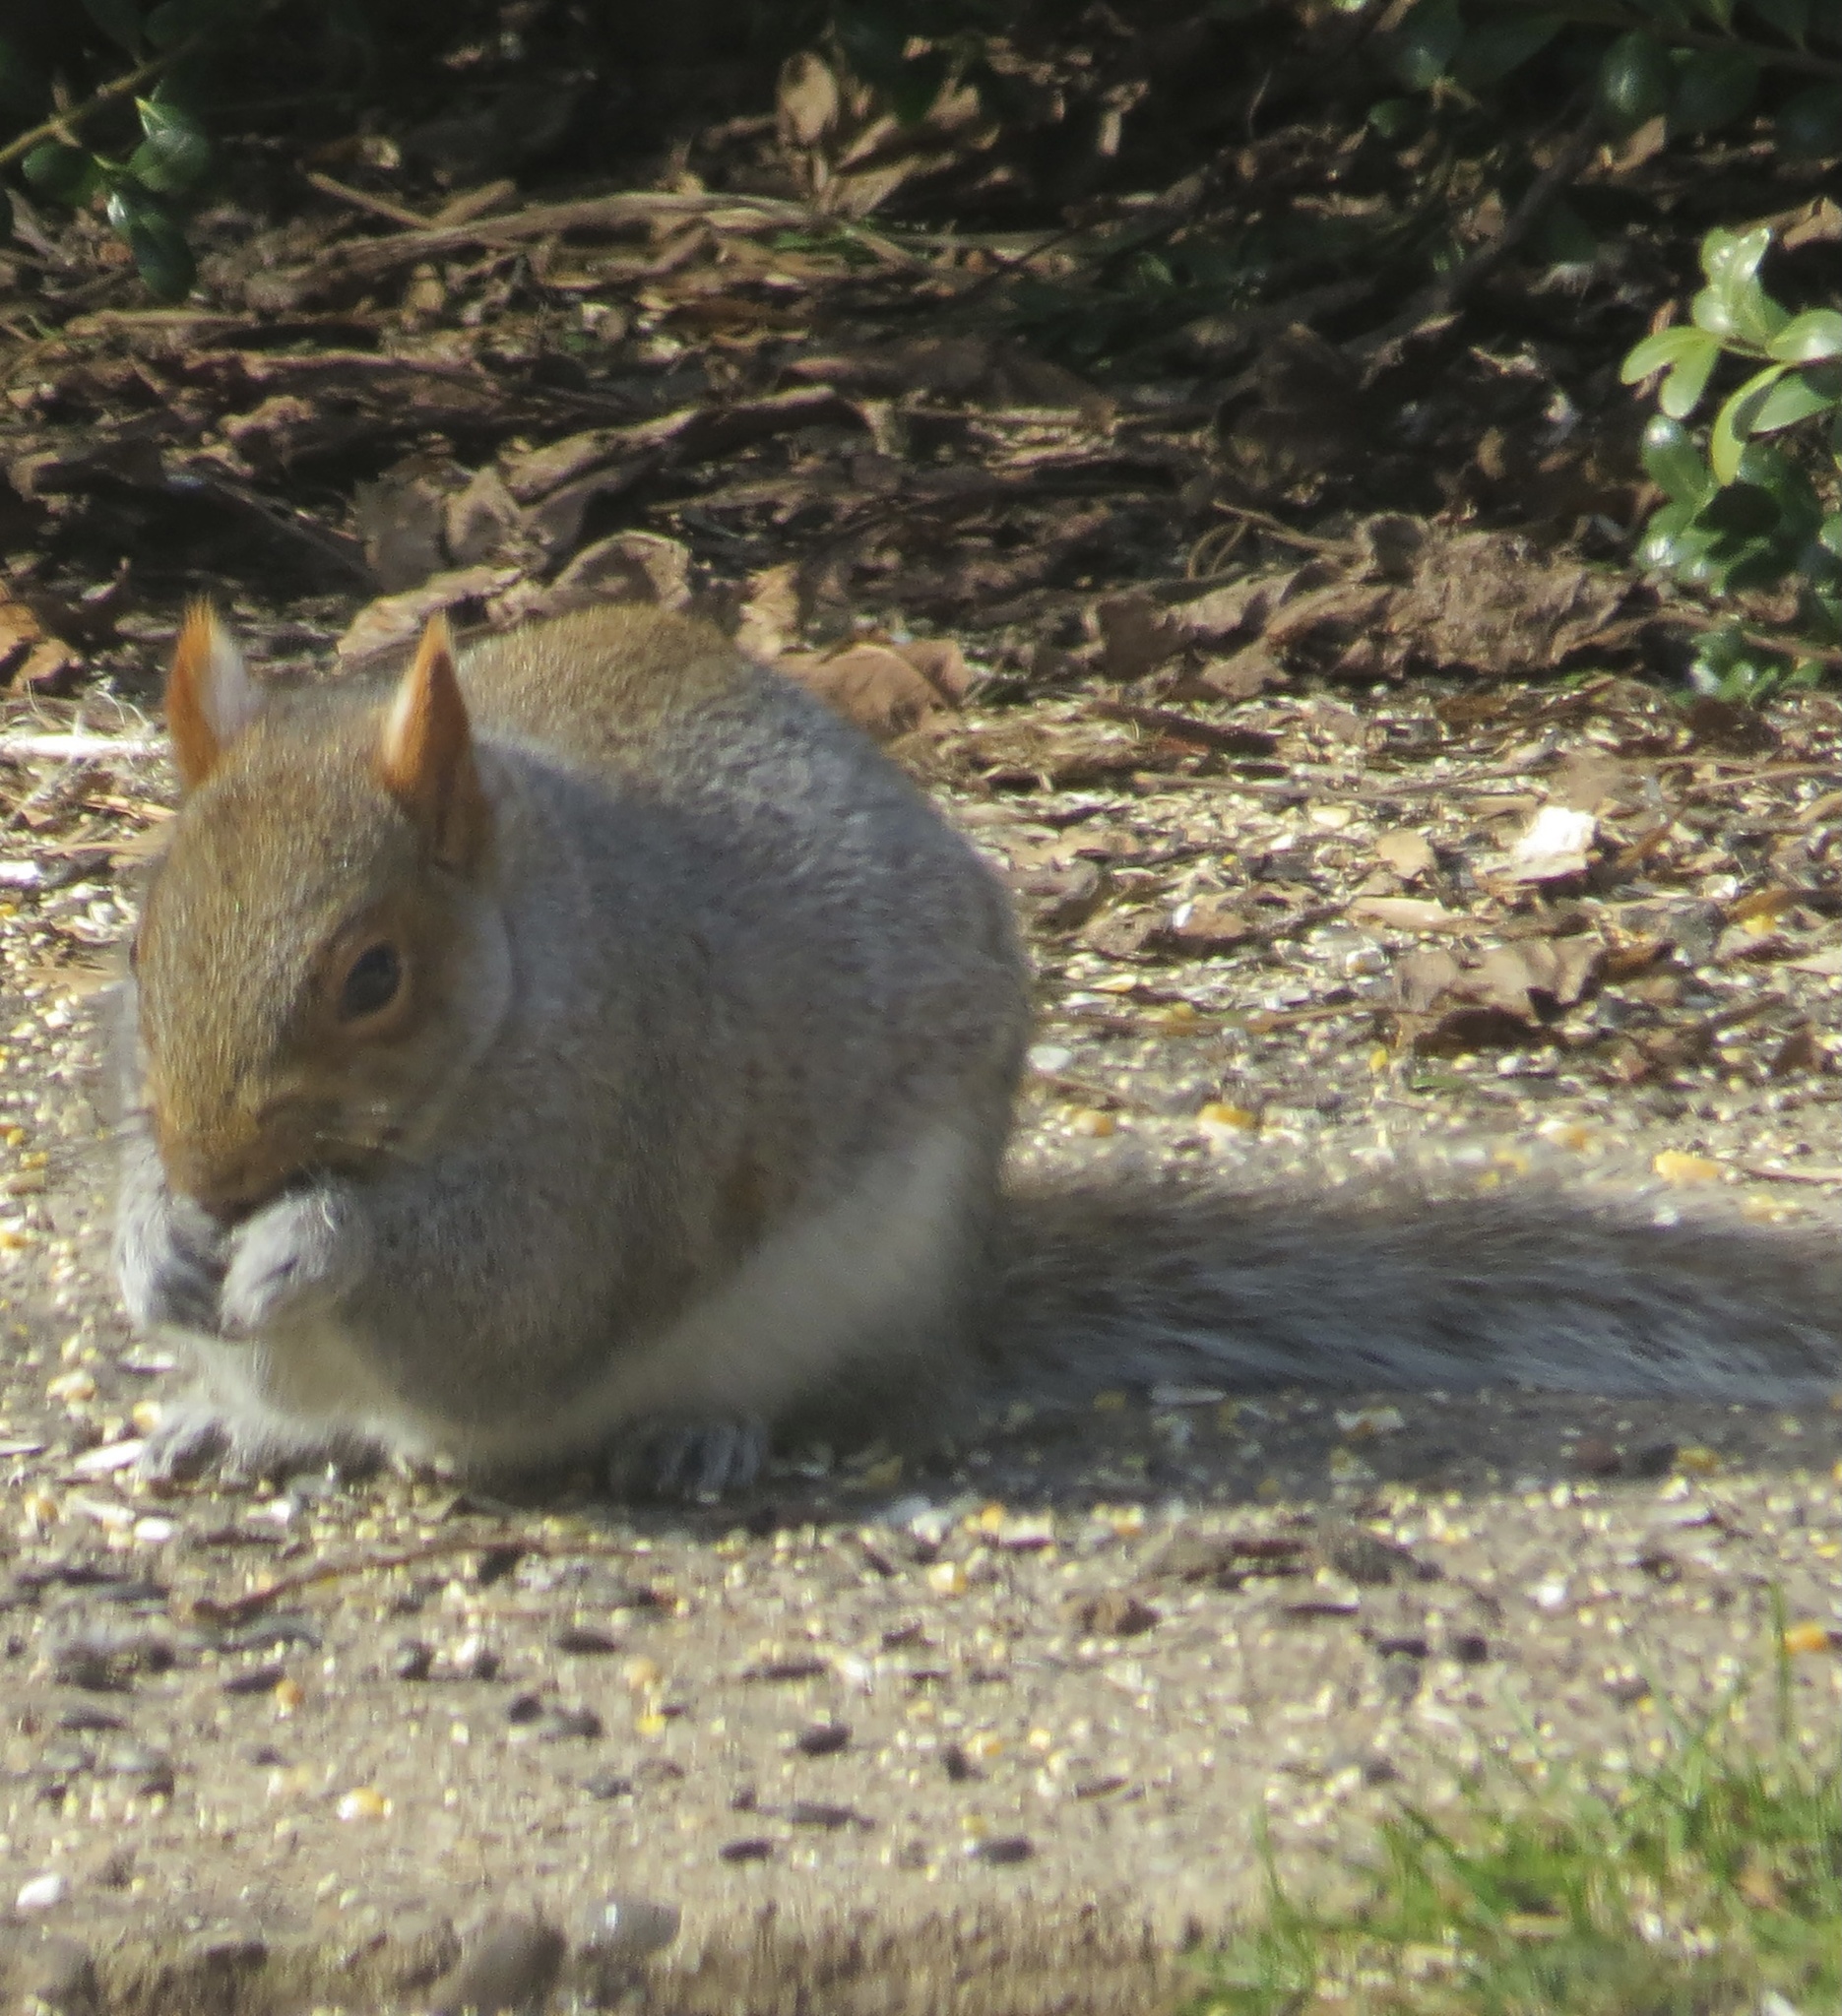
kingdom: Animalia
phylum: Chordata
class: Mammalia
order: Rodentia
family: Sciuridae
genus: Sciurus
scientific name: Sciurus carolinensis
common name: Eastern gray squirrel
